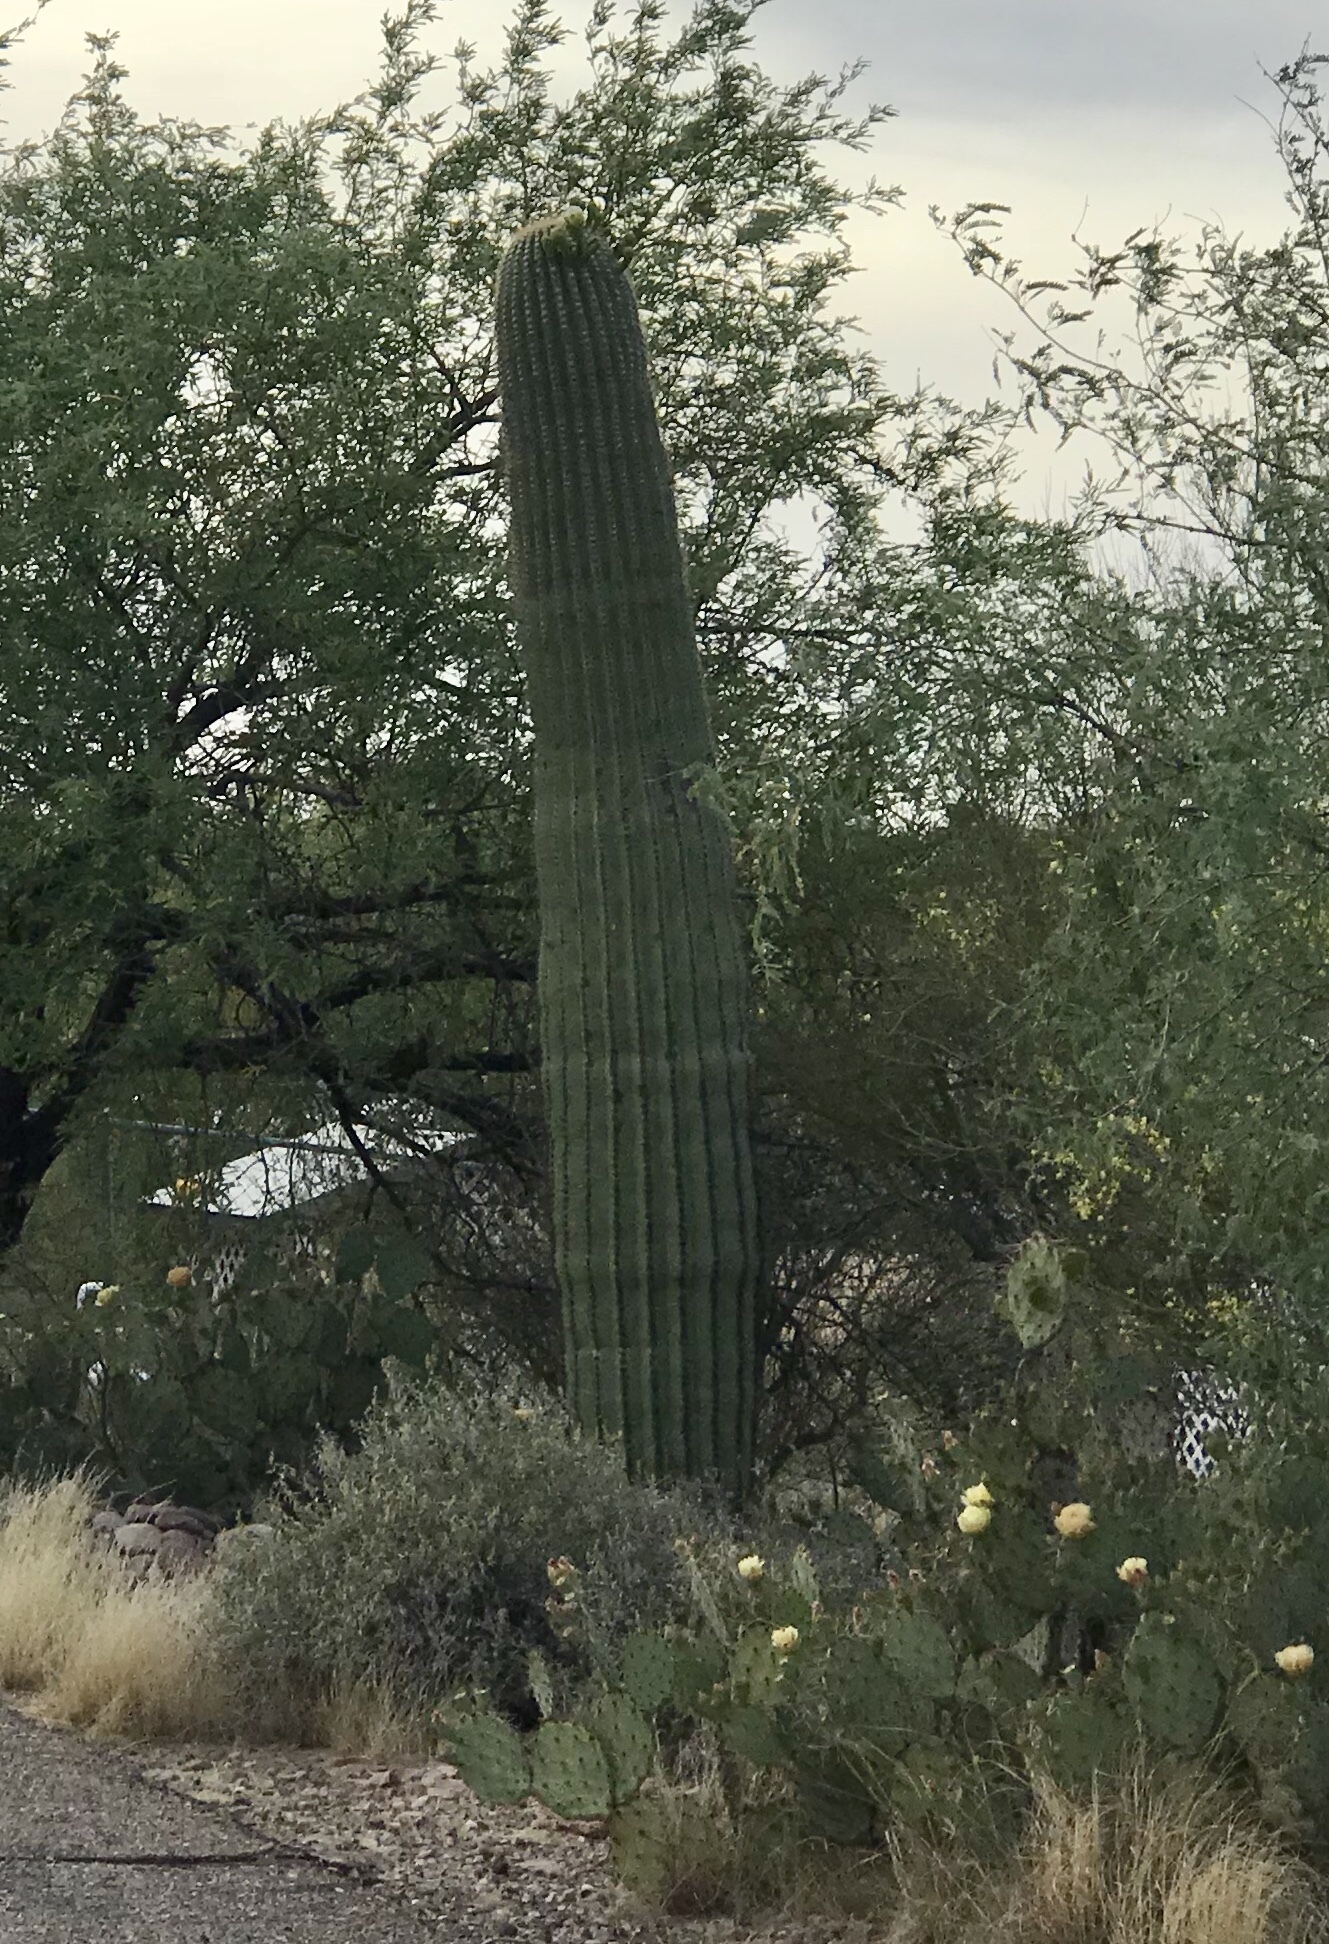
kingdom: Plantae
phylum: Tracheophyta
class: Magnoliopsida
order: Caryophyllales
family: Cactaceae
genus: Carnegiea
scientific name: Carnegiea gigantea
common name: Saguaro
